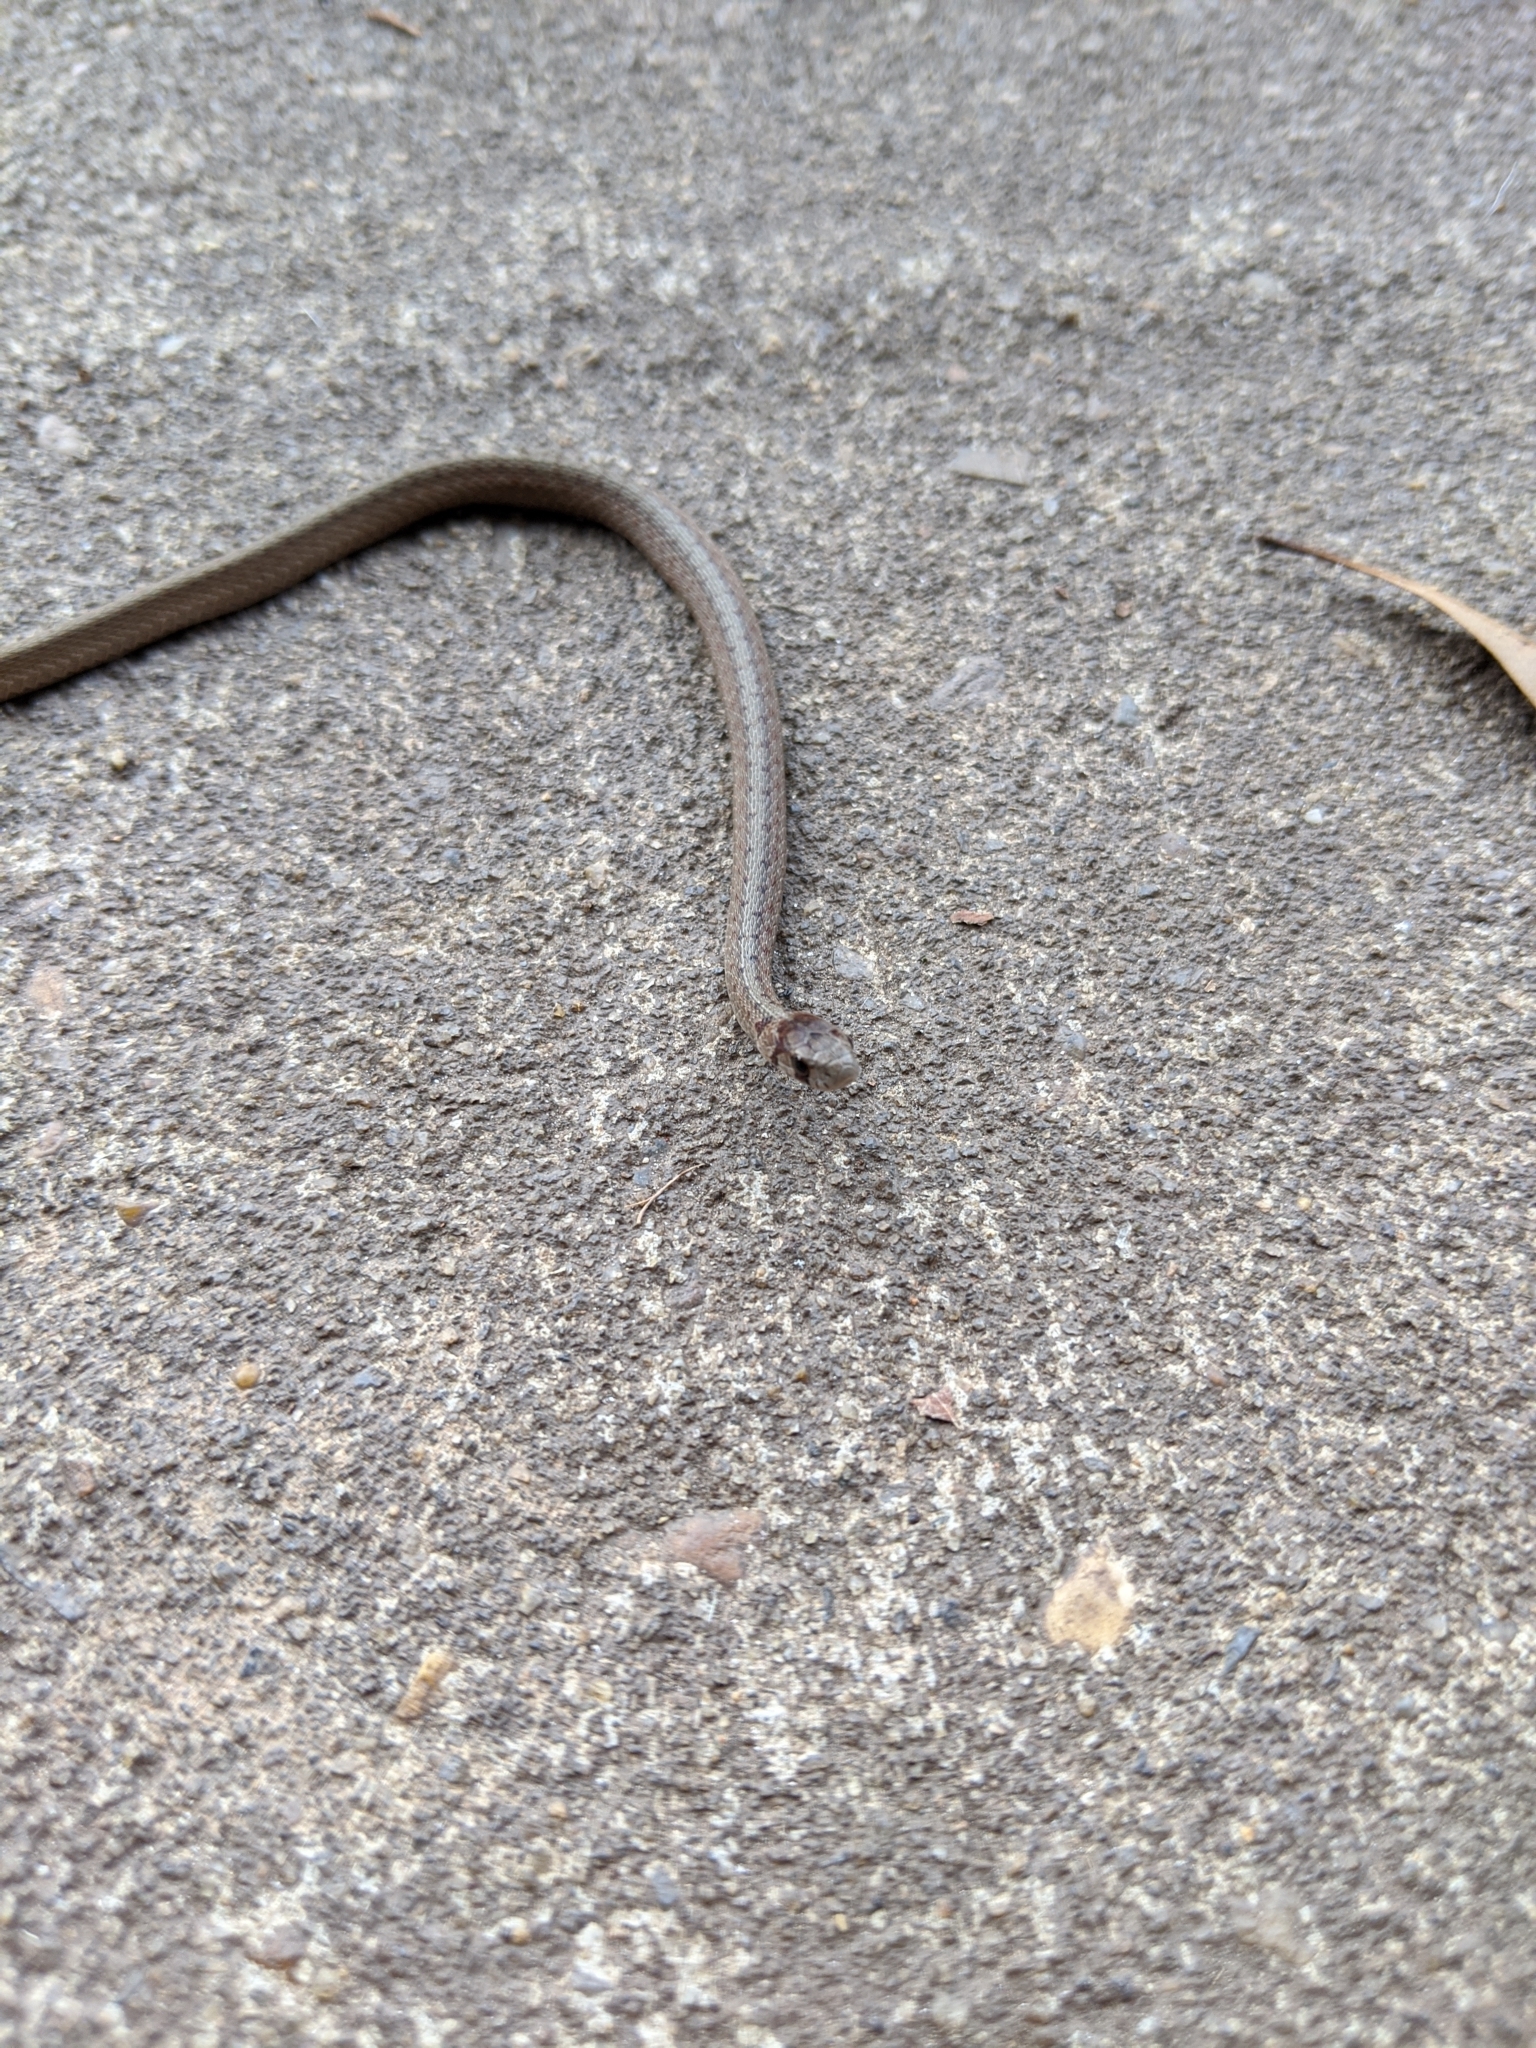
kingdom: Animalia
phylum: Chordata
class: Squamata
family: Colubridae
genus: Storeria
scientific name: Storeria dekayi
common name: (dekay’s) brown snake
